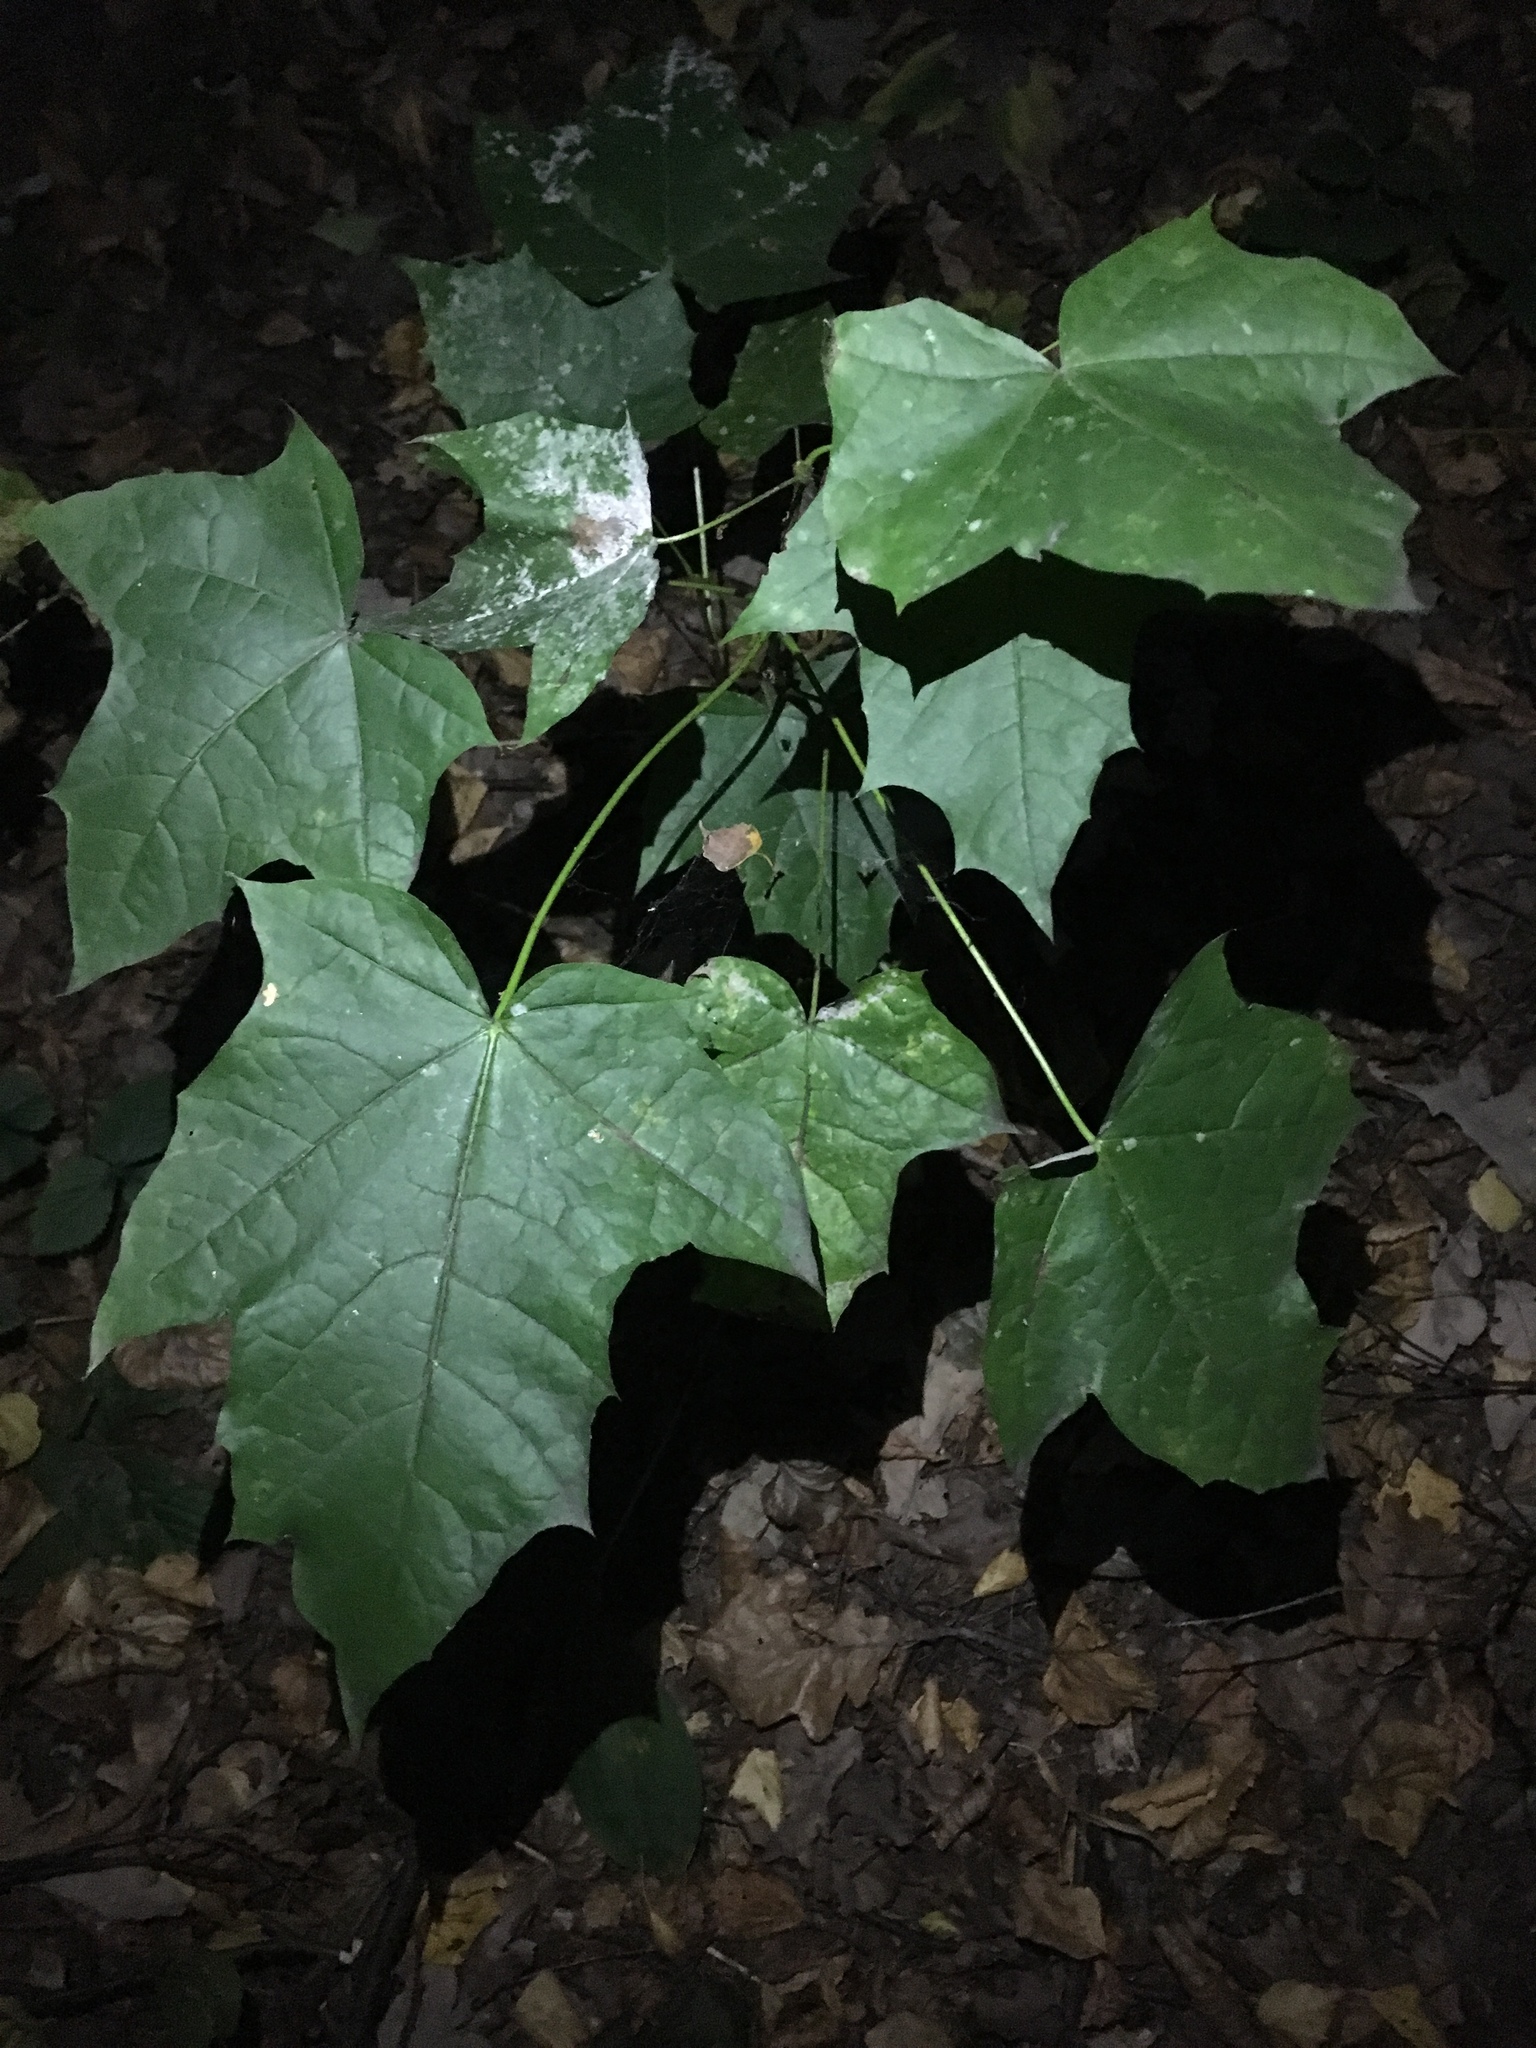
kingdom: Plantae
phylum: Tracheophyta
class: Magnoliopsida
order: Sapindales
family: Sapindaceae
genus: Acer
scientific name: Acer platanoides
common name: Norway maple
